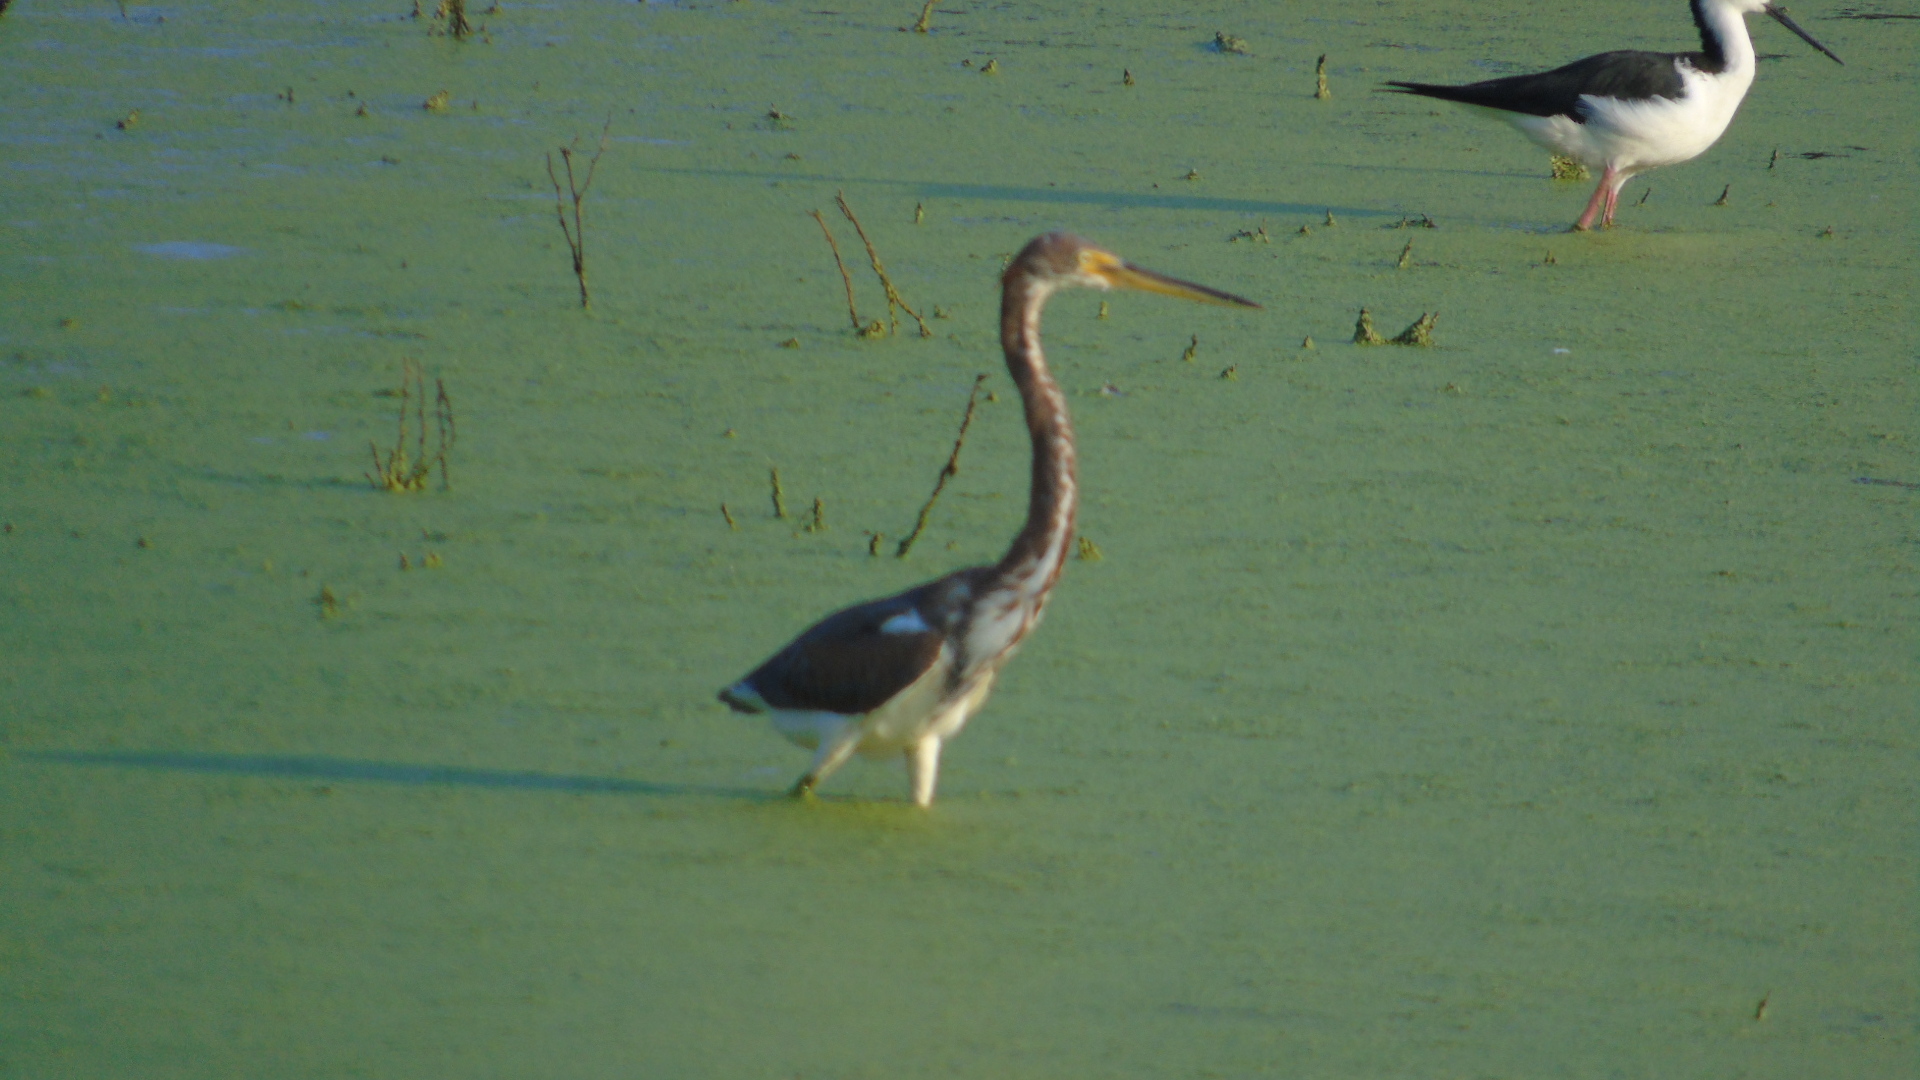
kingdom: Animalia
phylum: Chordata
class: Aves
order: Pelecaniformes
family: Ardeidae
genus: Egretta
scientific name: Egretta tricolor
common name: Tricolored heron
